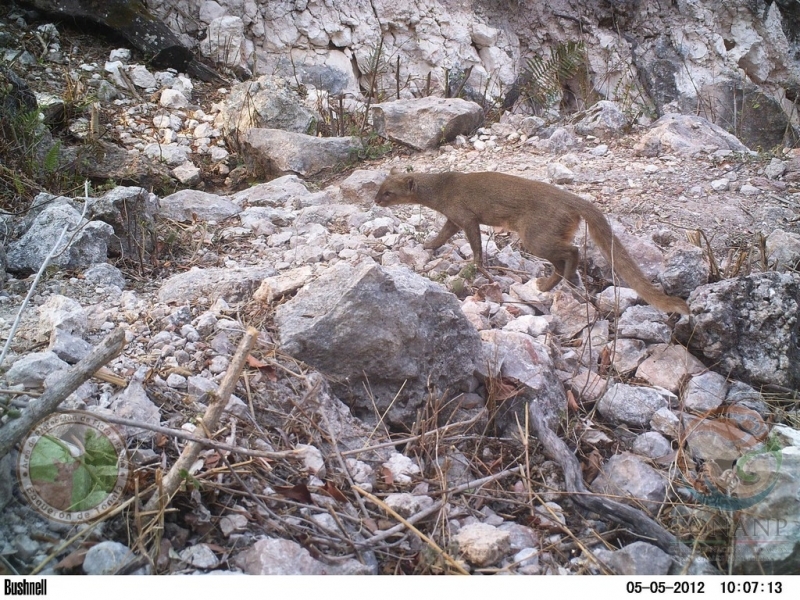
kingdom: Animalia
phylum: Chordata
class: Mammalia
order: Carnivora
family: Felidae
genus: Puma
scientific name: Puma yagouaroundi
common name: Jaguarundi
